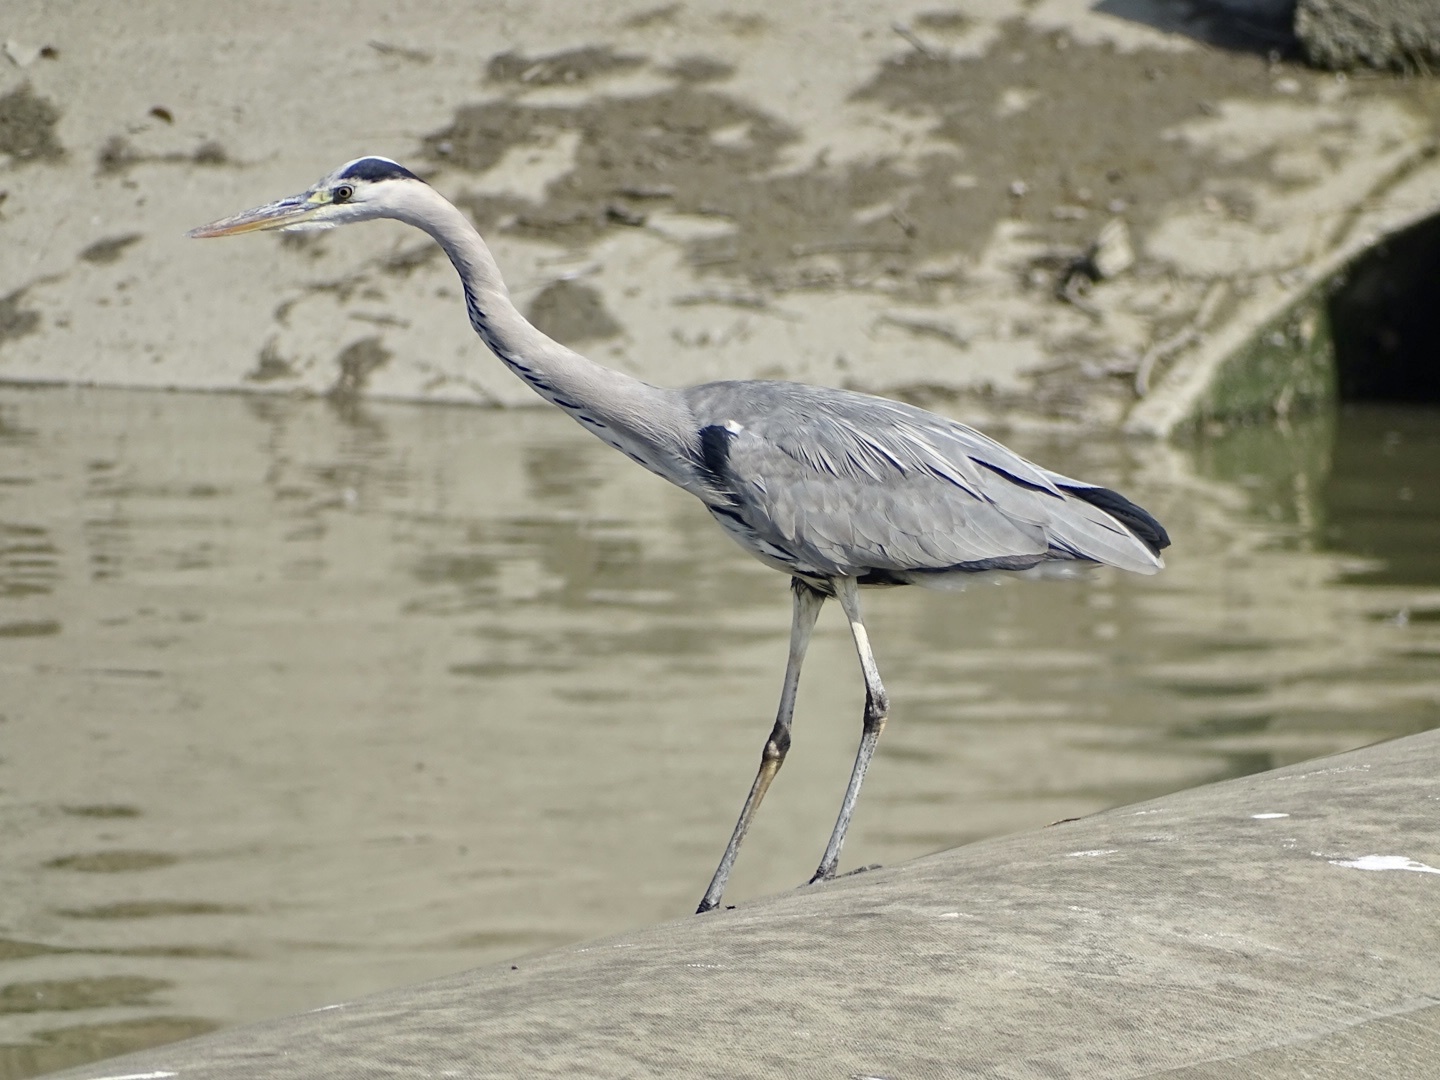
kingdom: Animalia
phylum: Chordata
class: Aves
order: Pelecaniformes
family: Ardeidae
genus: Ardea
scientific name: Ardea cinerea
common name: Grey heron
